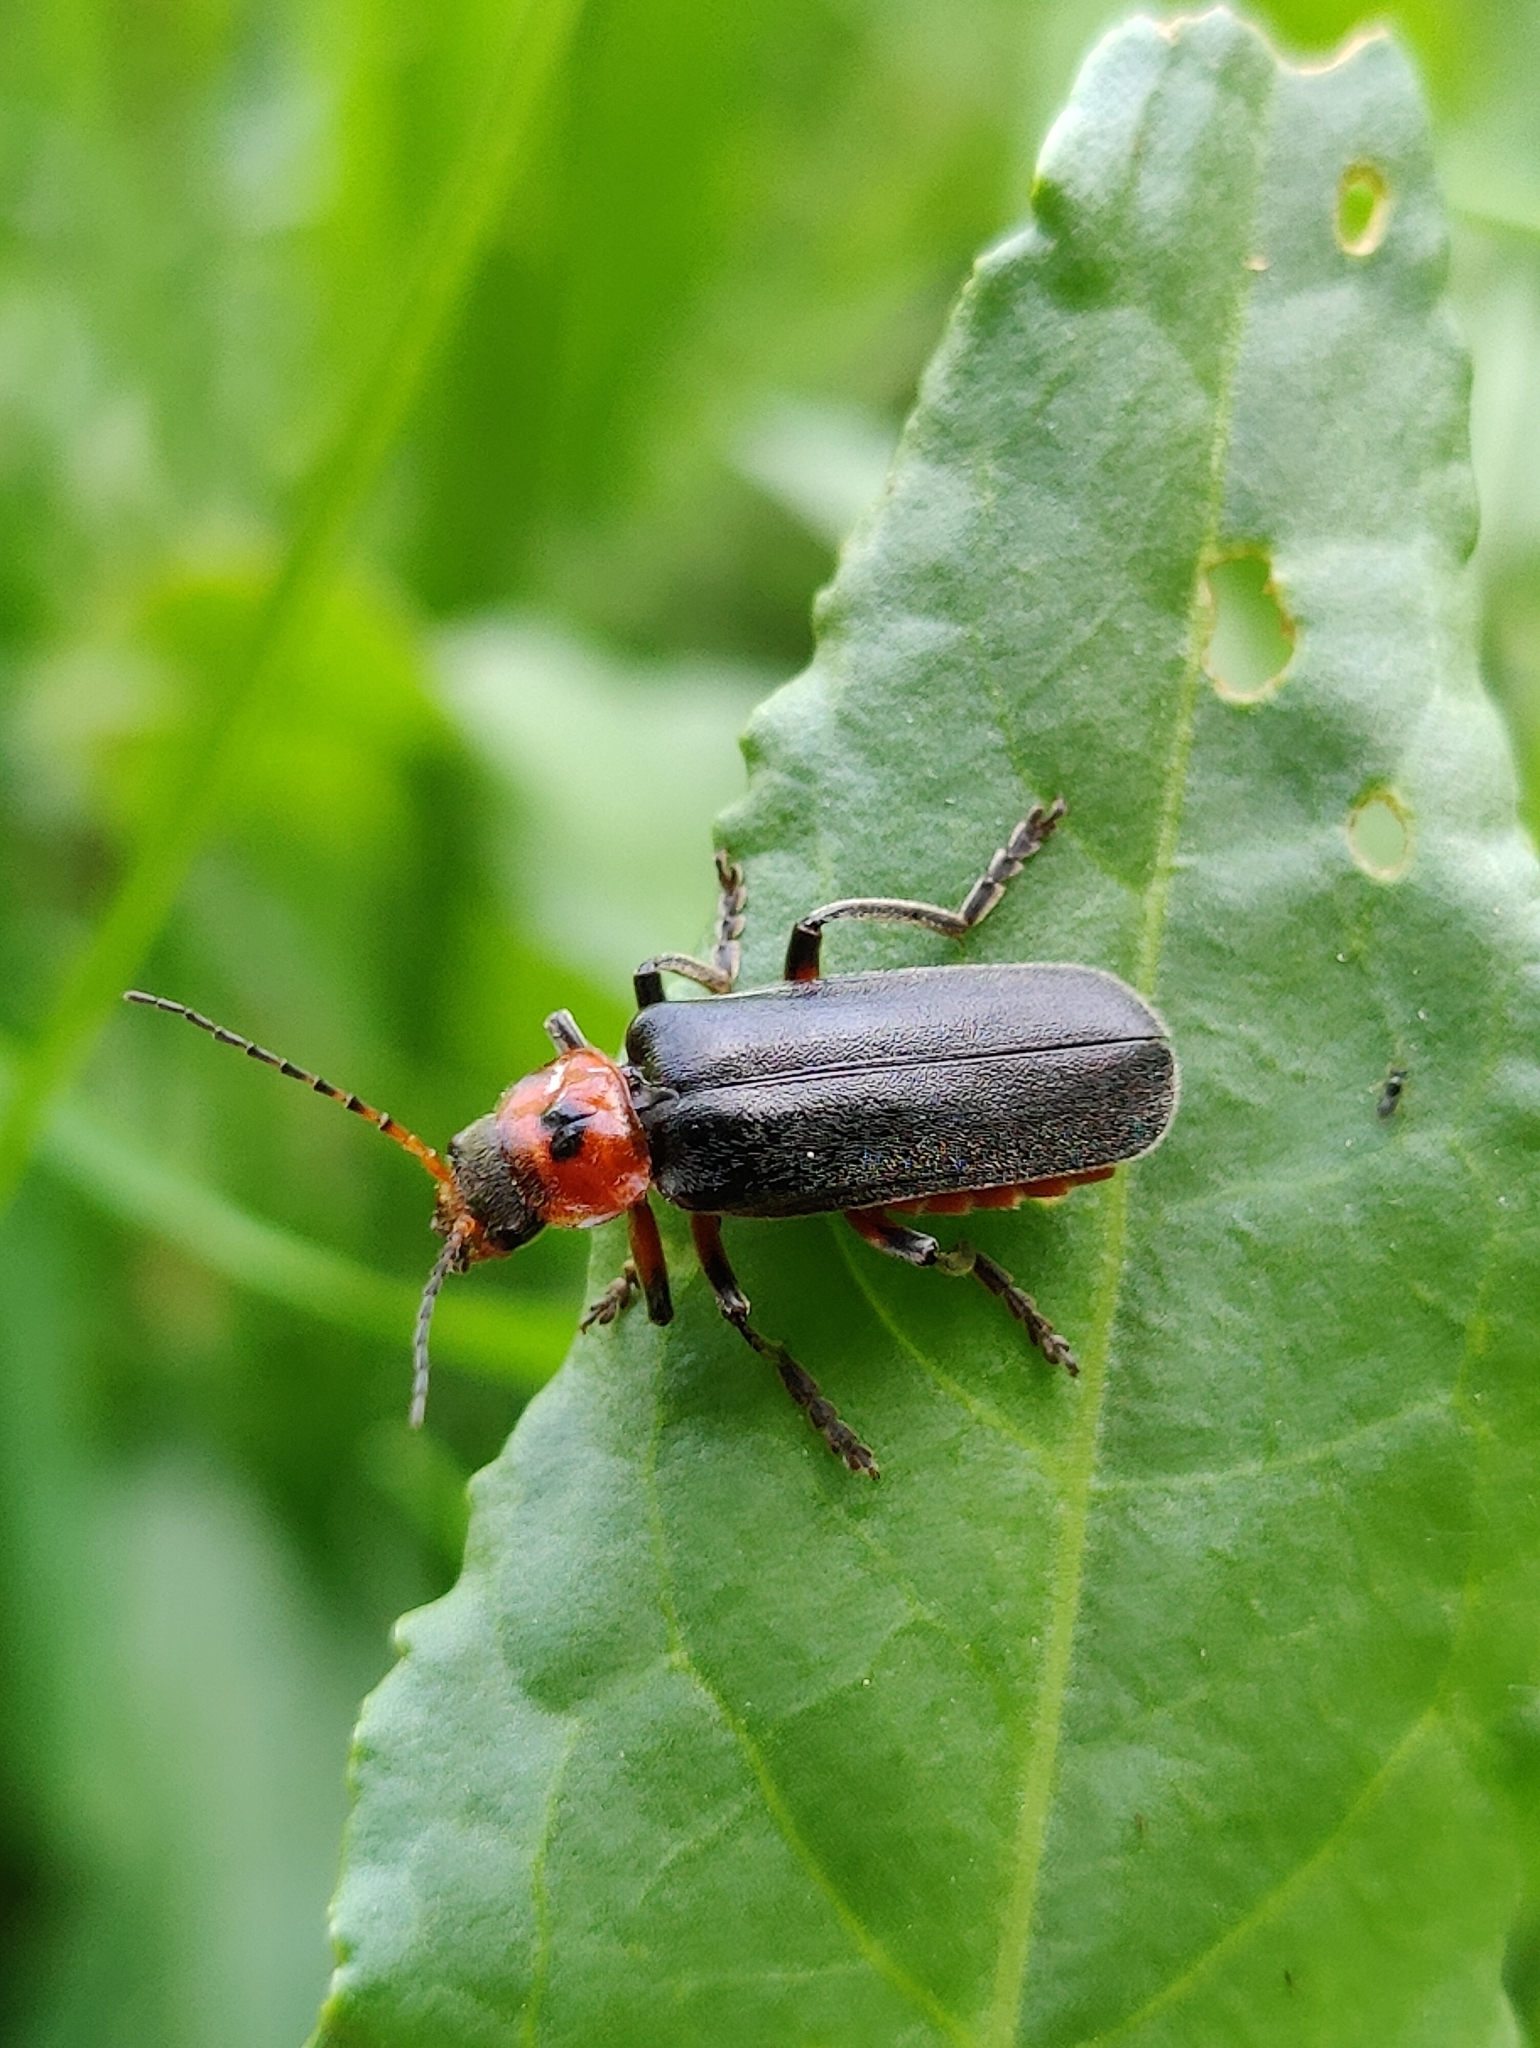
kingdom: Animalia
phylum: Arthropoda
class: Insecta
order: Coleoptera
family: Cantharidae
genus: Cantharis
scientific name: Cantharis rustica
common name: Soldier beetle
